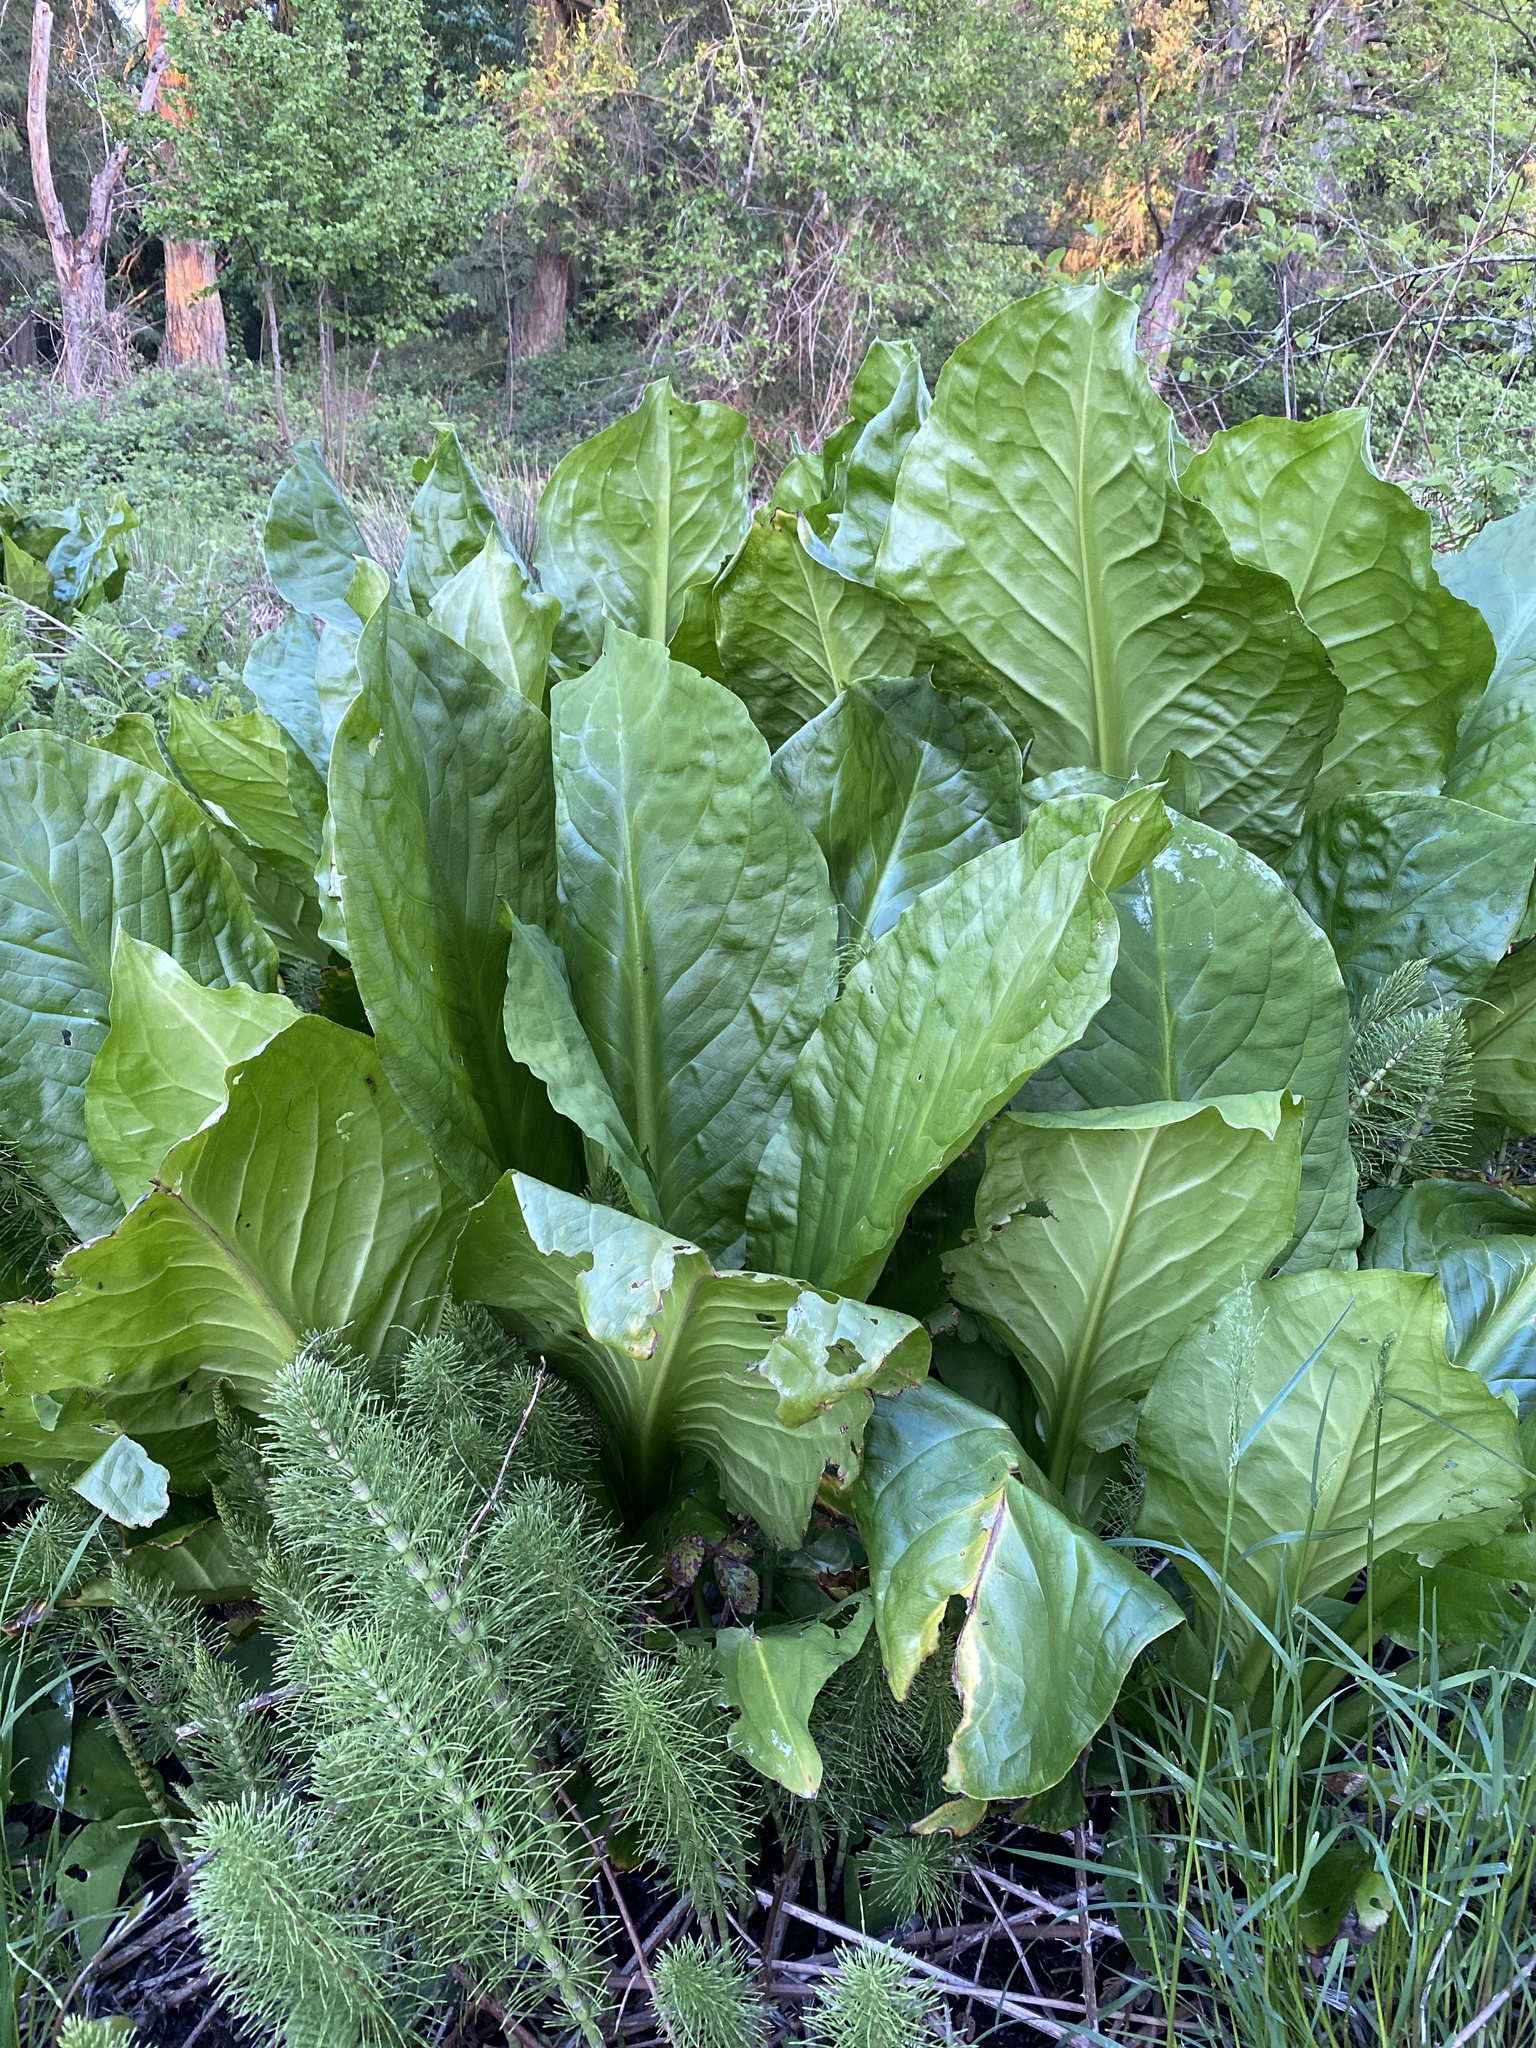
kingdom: Plantae
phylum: Tracheophyta
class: Liliopsida
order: Alismatales
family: Araceae
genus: Lysichiton
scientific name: Lysichiton americanus
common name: American skunk cabbage
